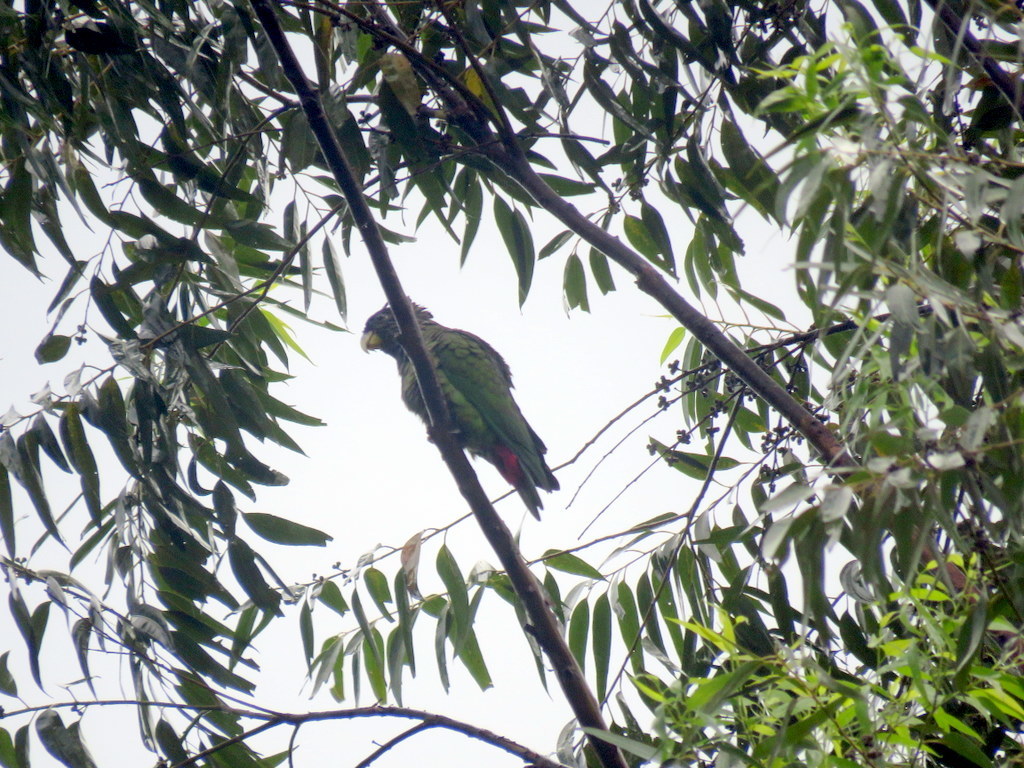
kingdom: Animalia
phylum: Chordata
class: Aves
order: Psittaciformes
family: Psittacidae
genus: Pionus
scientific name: Pionus maximiliani
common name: Scaly-headed parrot
